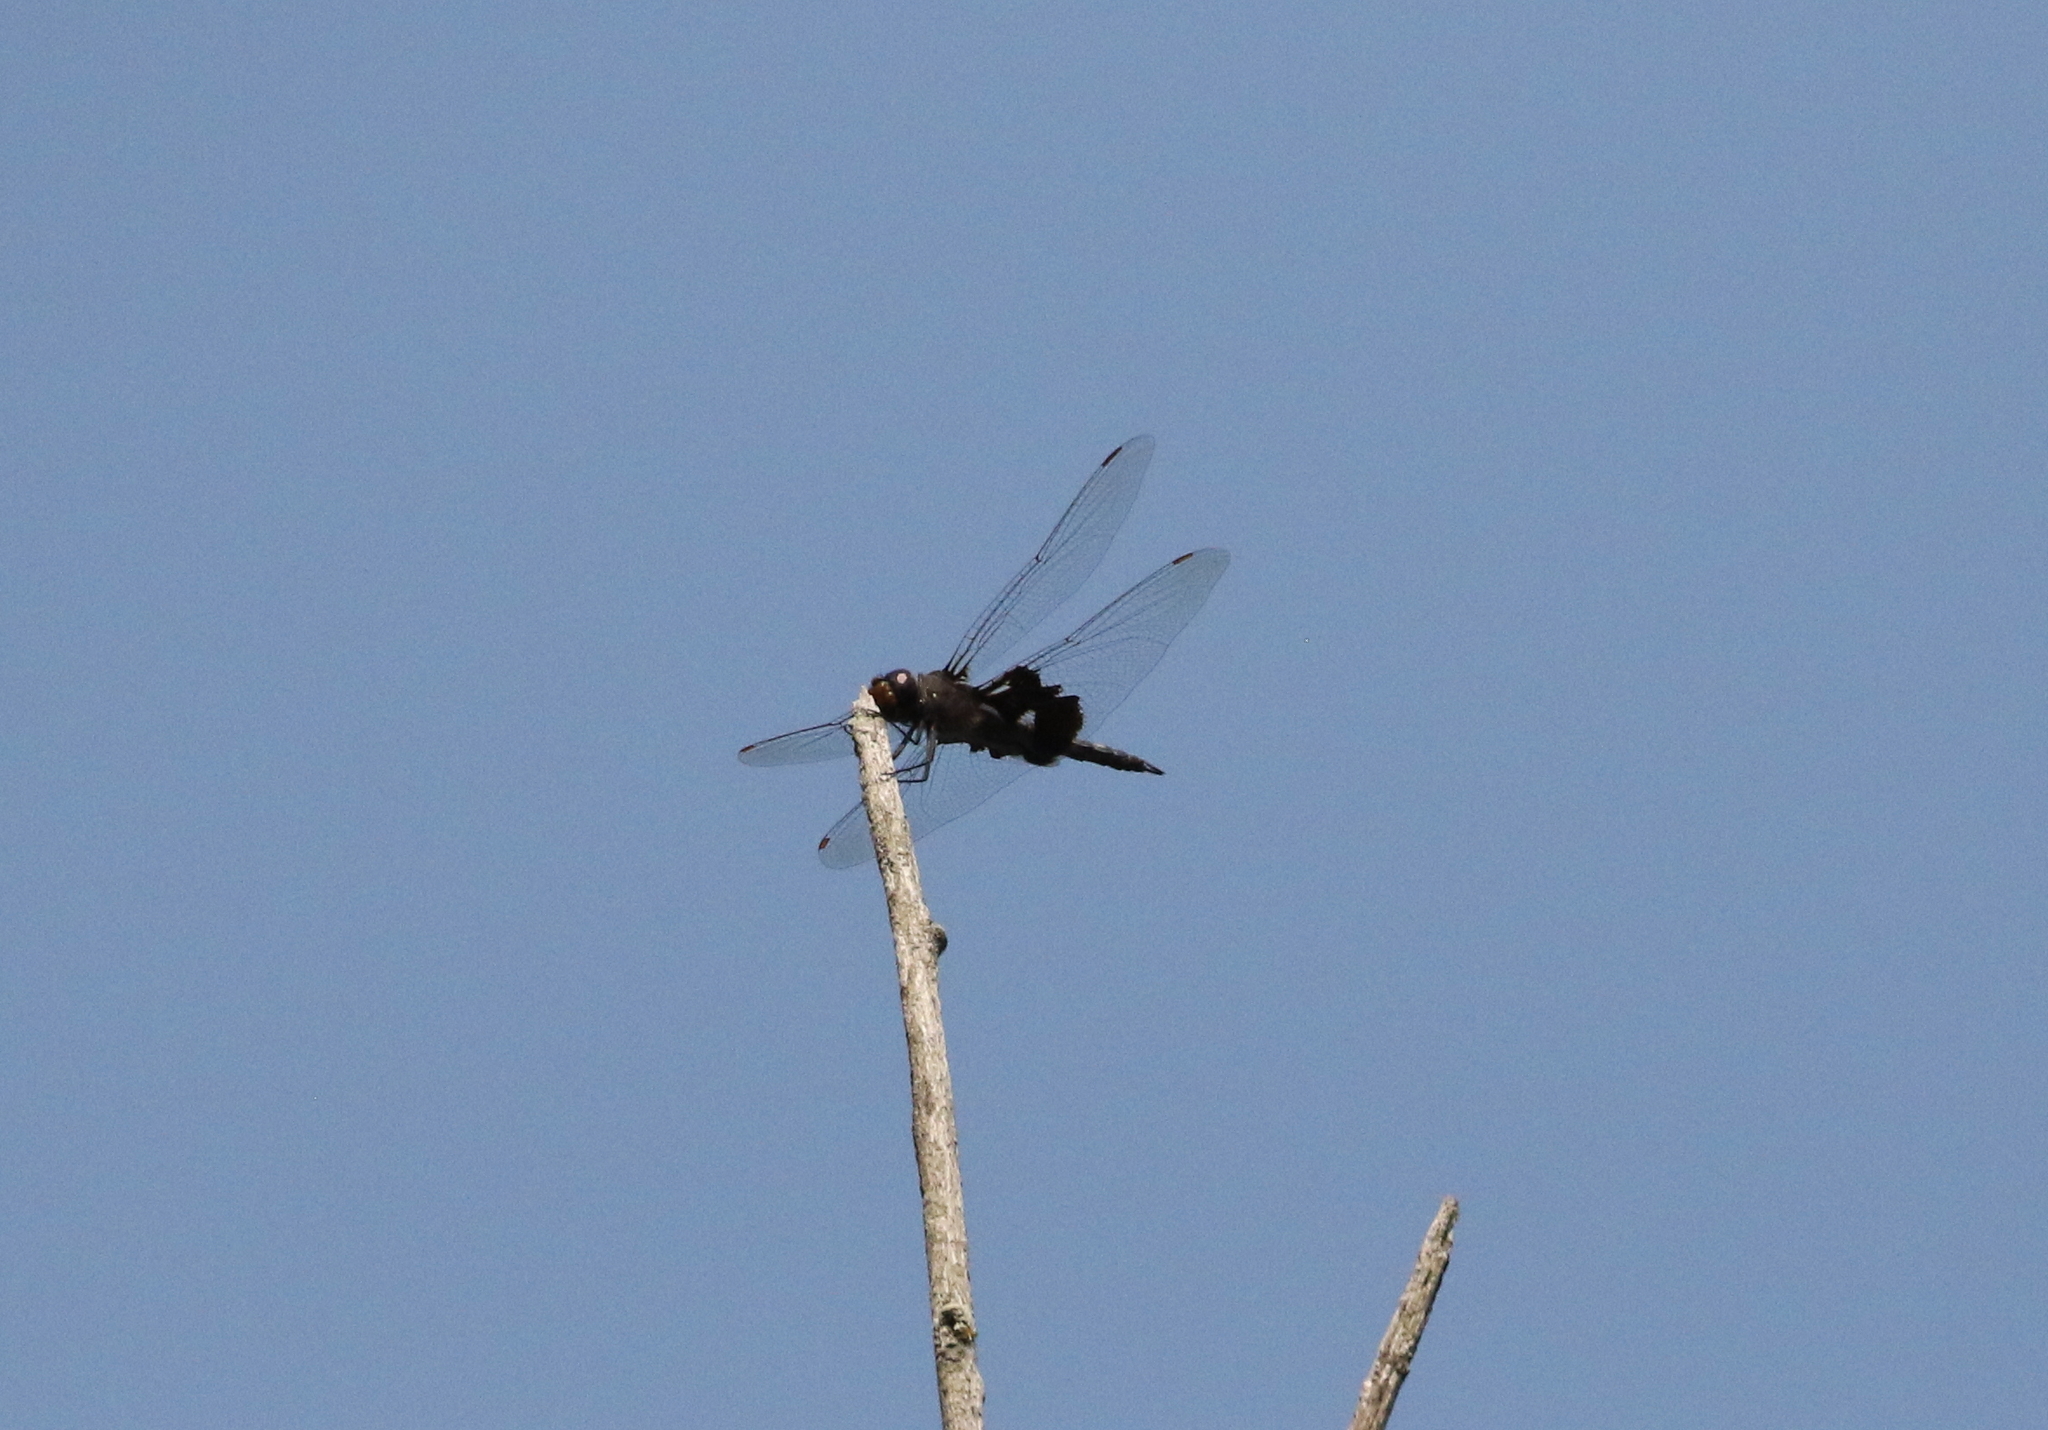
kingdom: Animalia
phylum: Arthropoda
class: Insecta
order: Odonata
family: Libellulidae
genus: Tramea
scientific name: Tramea lacerata
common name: Black saddlebags
